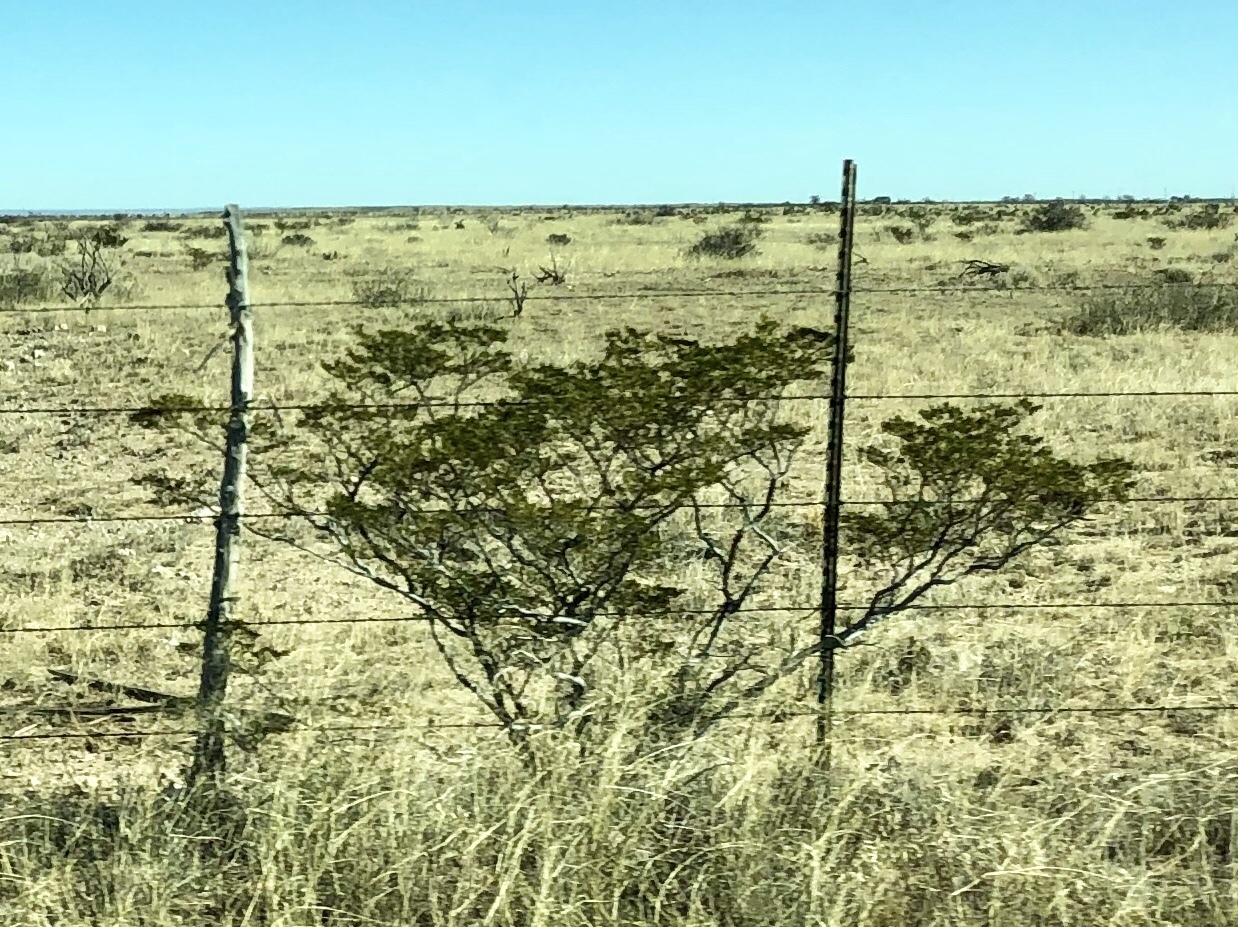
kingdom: Plantae
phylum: Tracheophyta
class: Magnoliopsida
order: Zygophyllales
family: Zygophyllaceae
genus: Larrea
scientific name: Larrea tridentata
